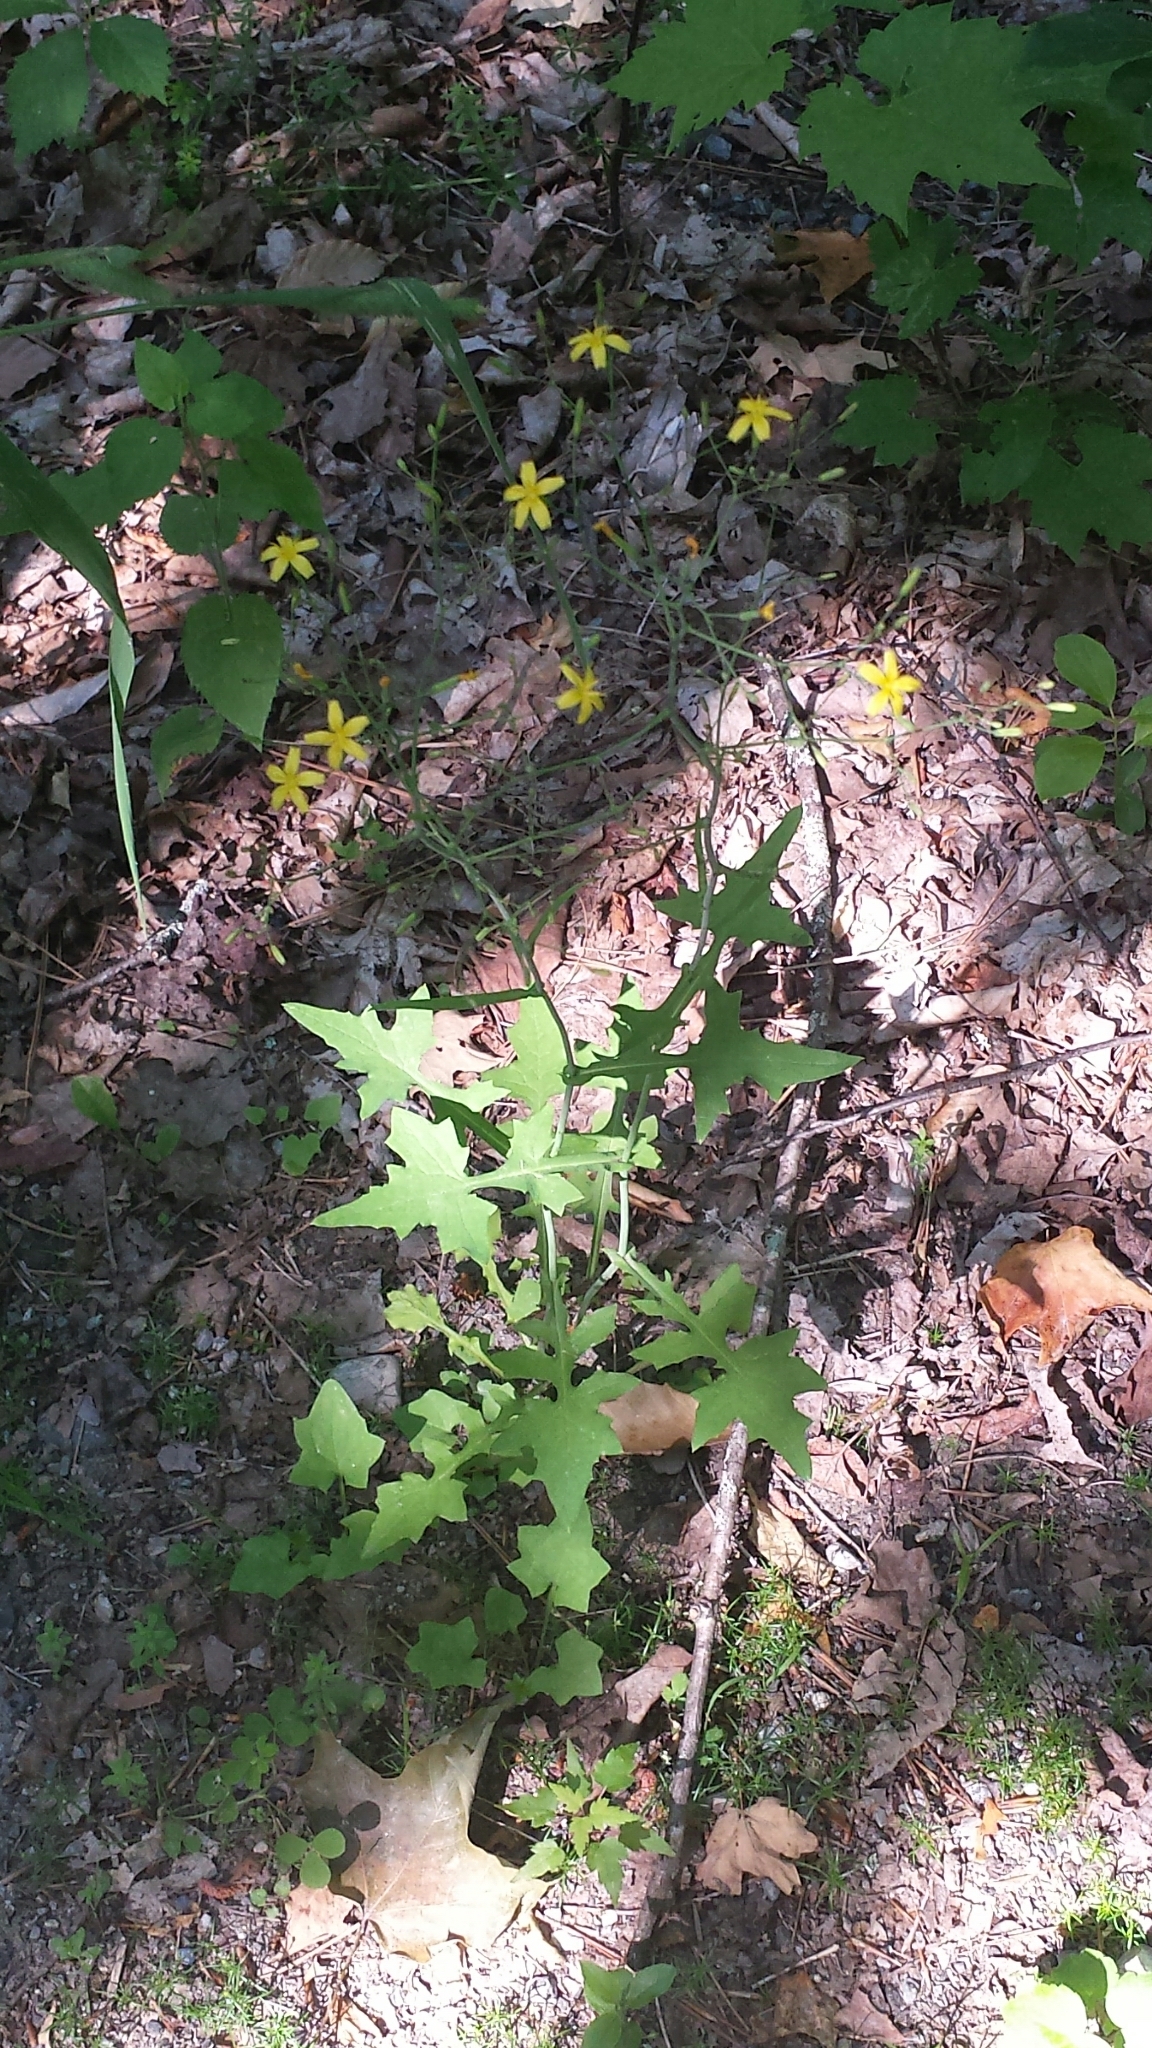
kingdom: Plantae
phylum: Tracheophyta
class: Magnoliopsida
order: Asterales
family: Asteraceae
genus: Mycelis
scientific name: Mycelis muralis
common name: Wall lettuce
